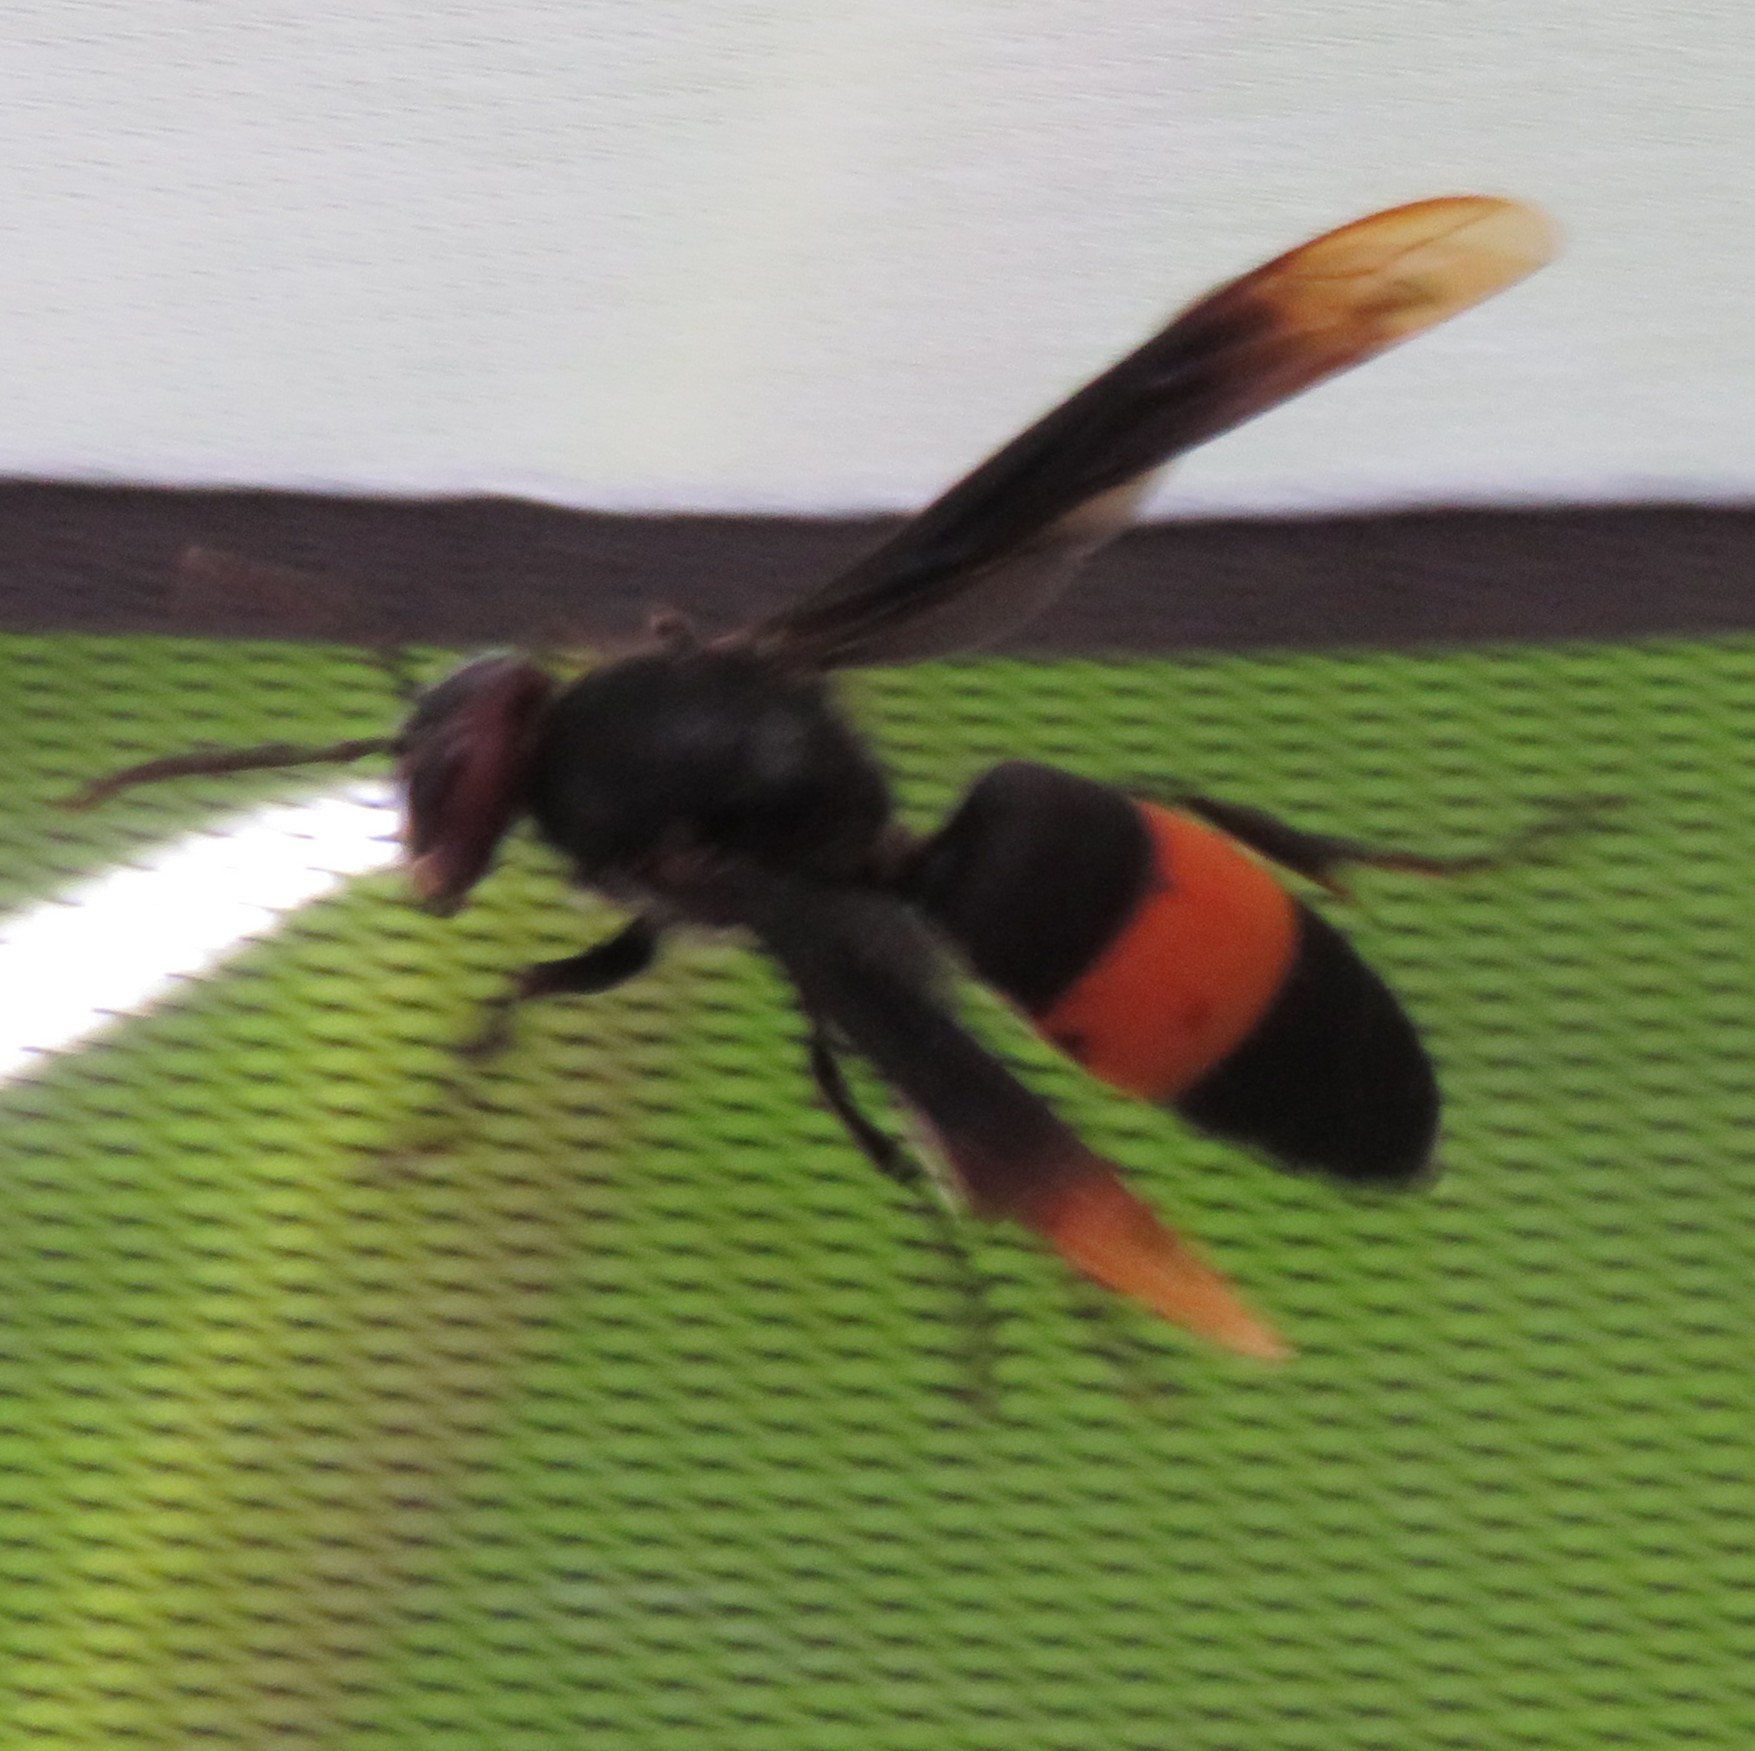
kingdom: Animalia
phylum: Arthropoda
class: Insecta
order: Hymenoptera
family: Vespidae
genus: Vespa
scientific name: Vespa tropica
